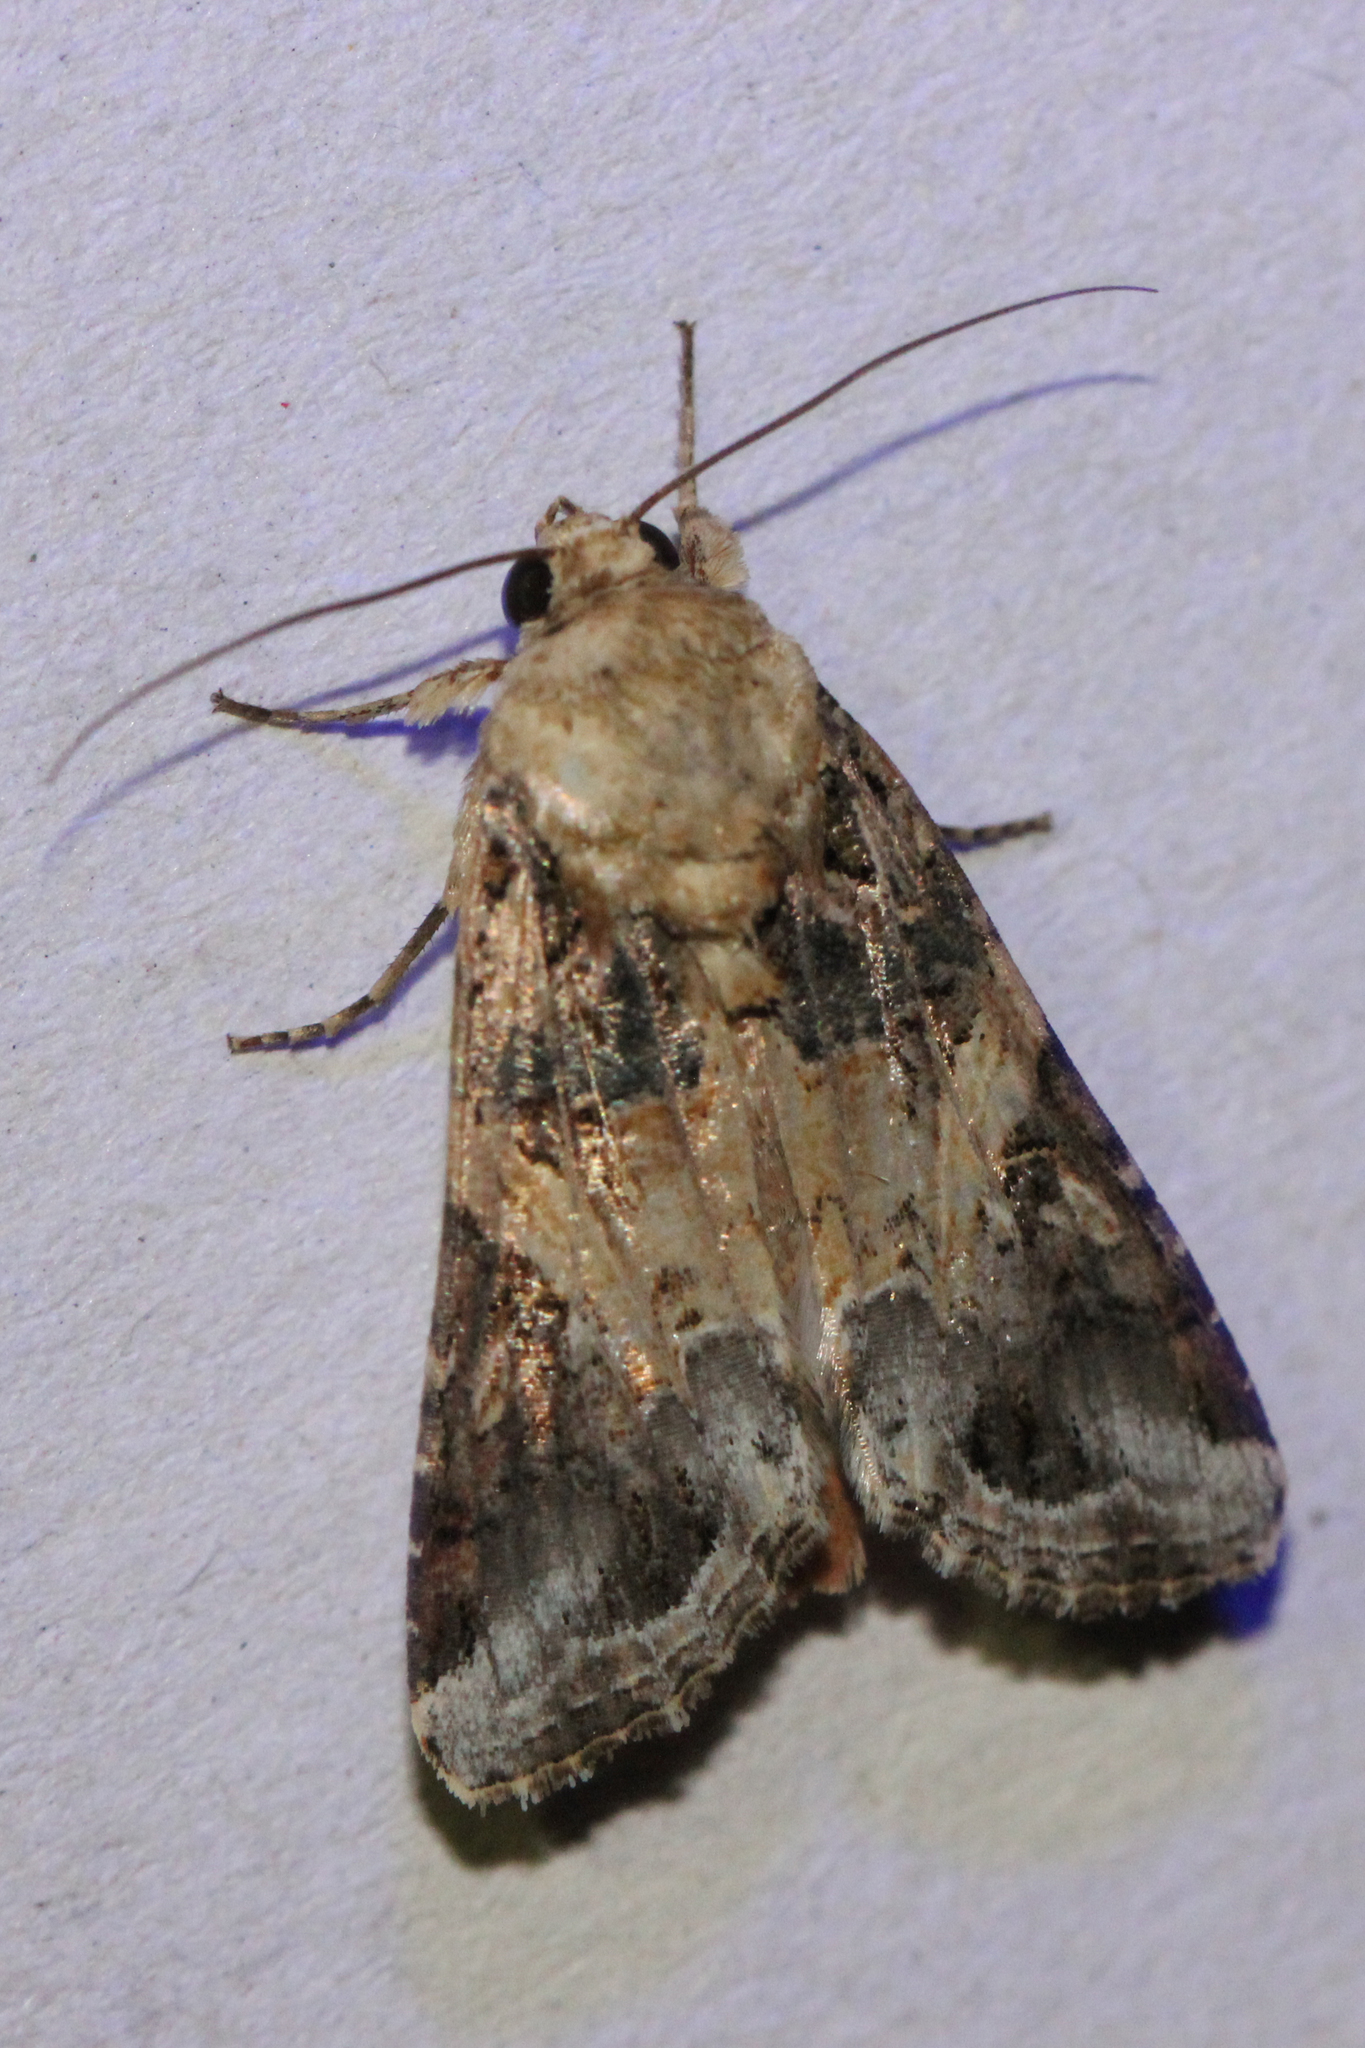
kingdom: Animalia
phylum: Arthropoda
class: Insecta
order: Lepidoptera
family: Noctuidae
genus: Spodoptera
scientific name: Spodoptera ornithogalli
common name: Yellow-striped armyworm
